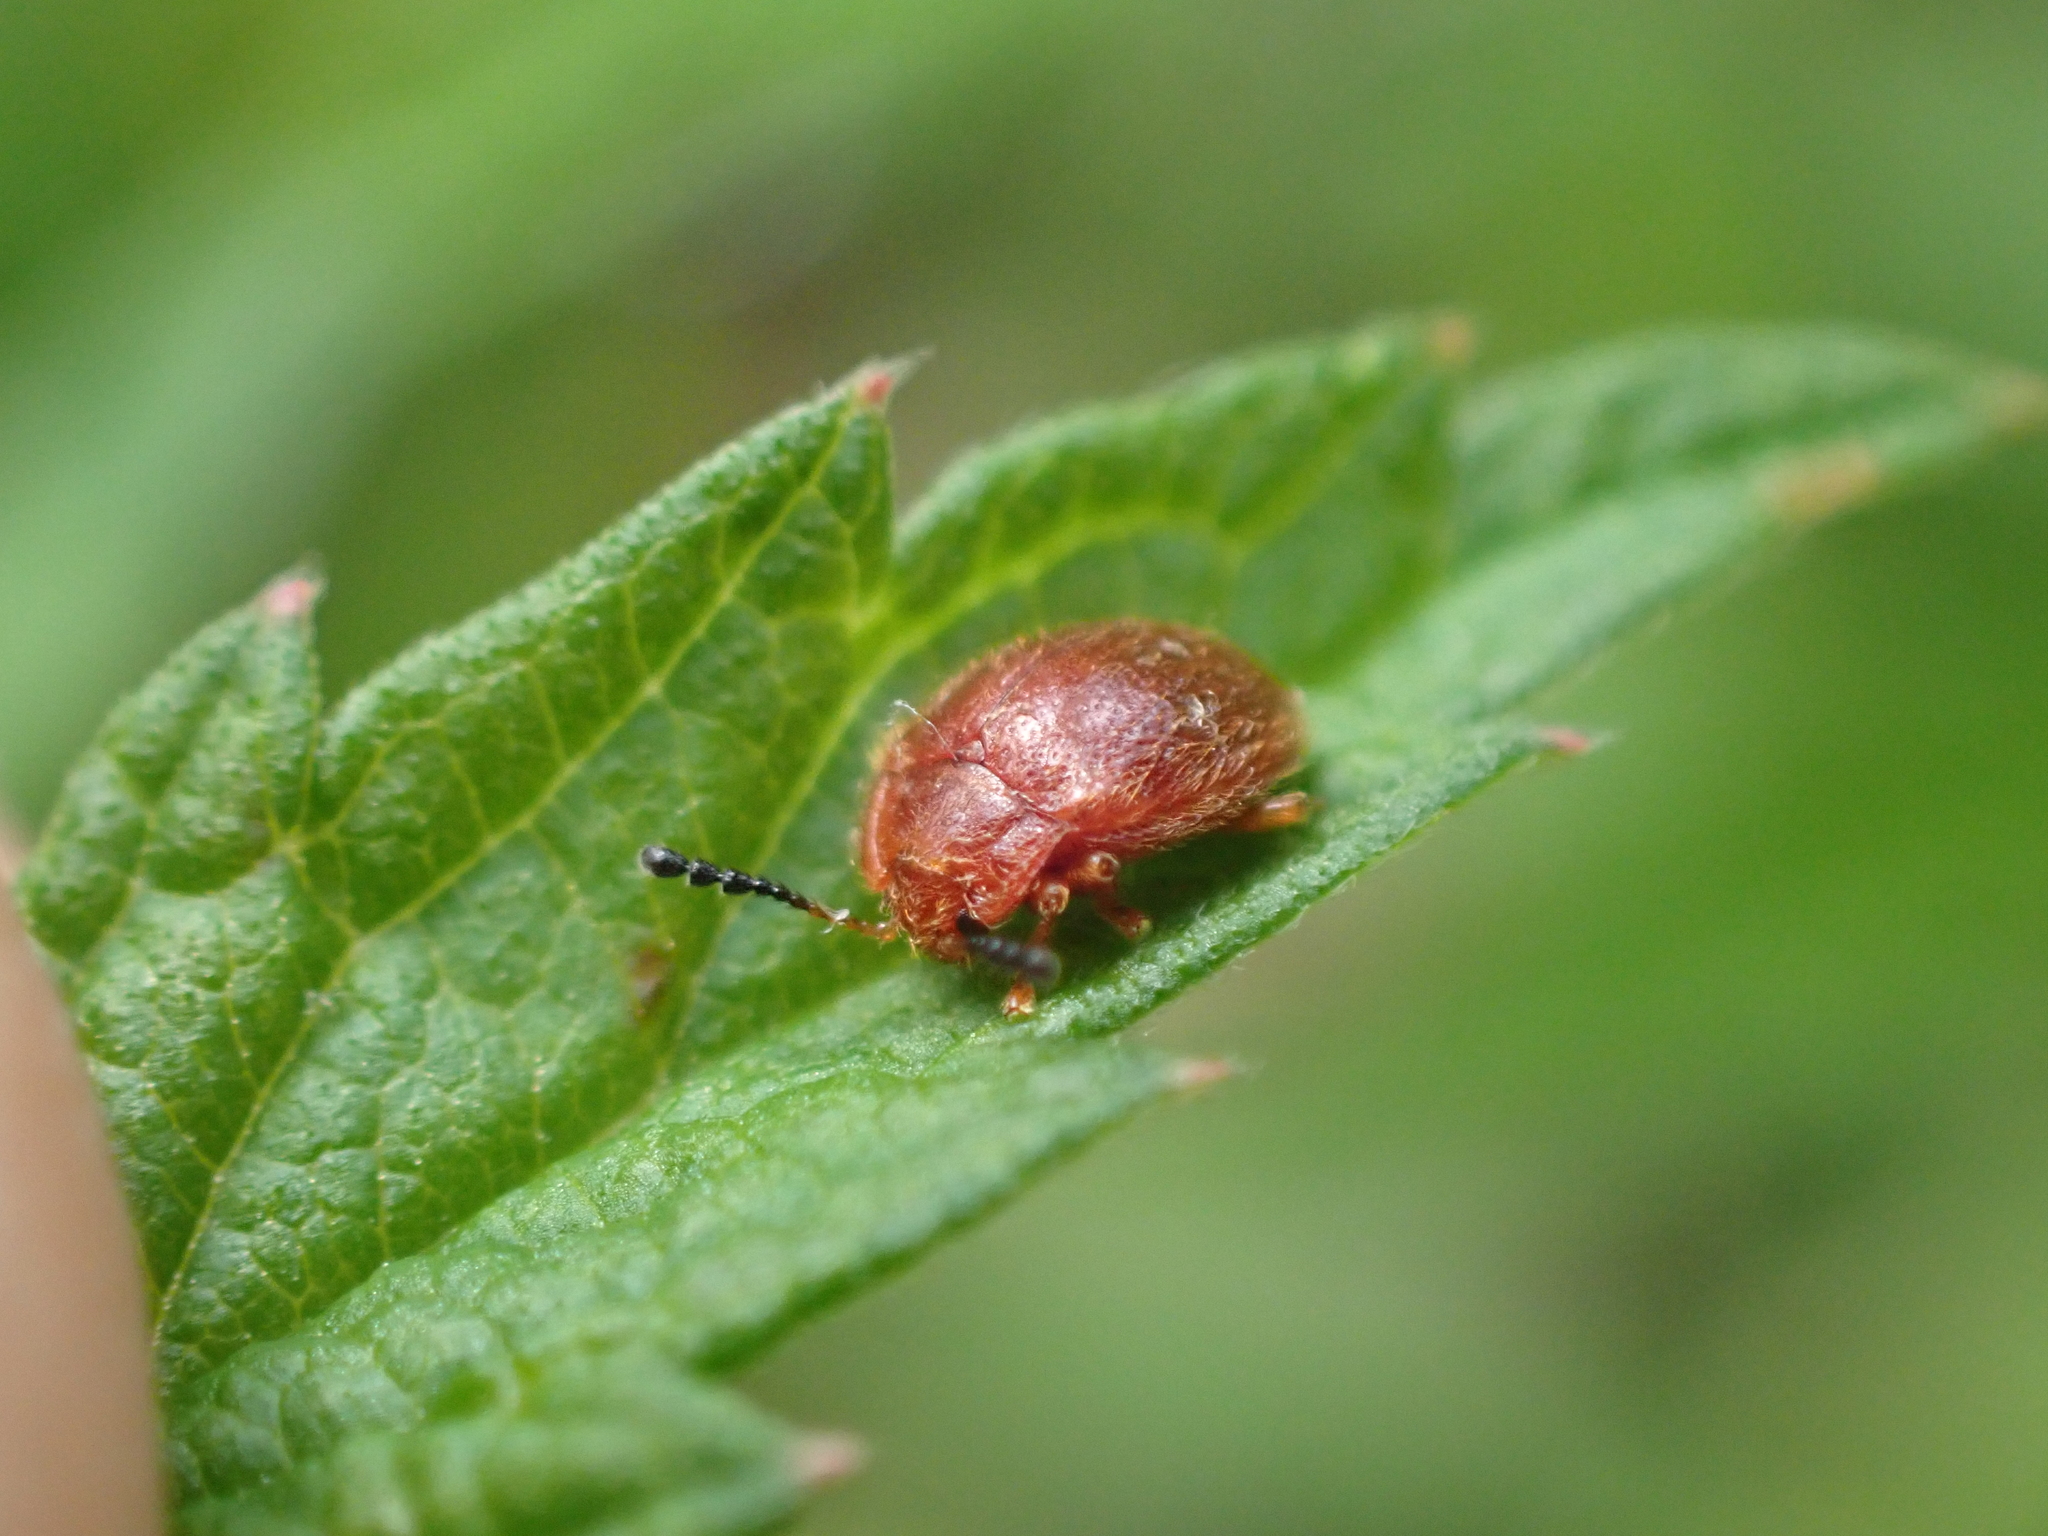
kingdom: Animalia
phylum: Arthropoda
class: Insecta
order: Coleoptera
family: Endomychidae
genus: Stenotarsus
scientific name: Stenotarsus blatchleyi
